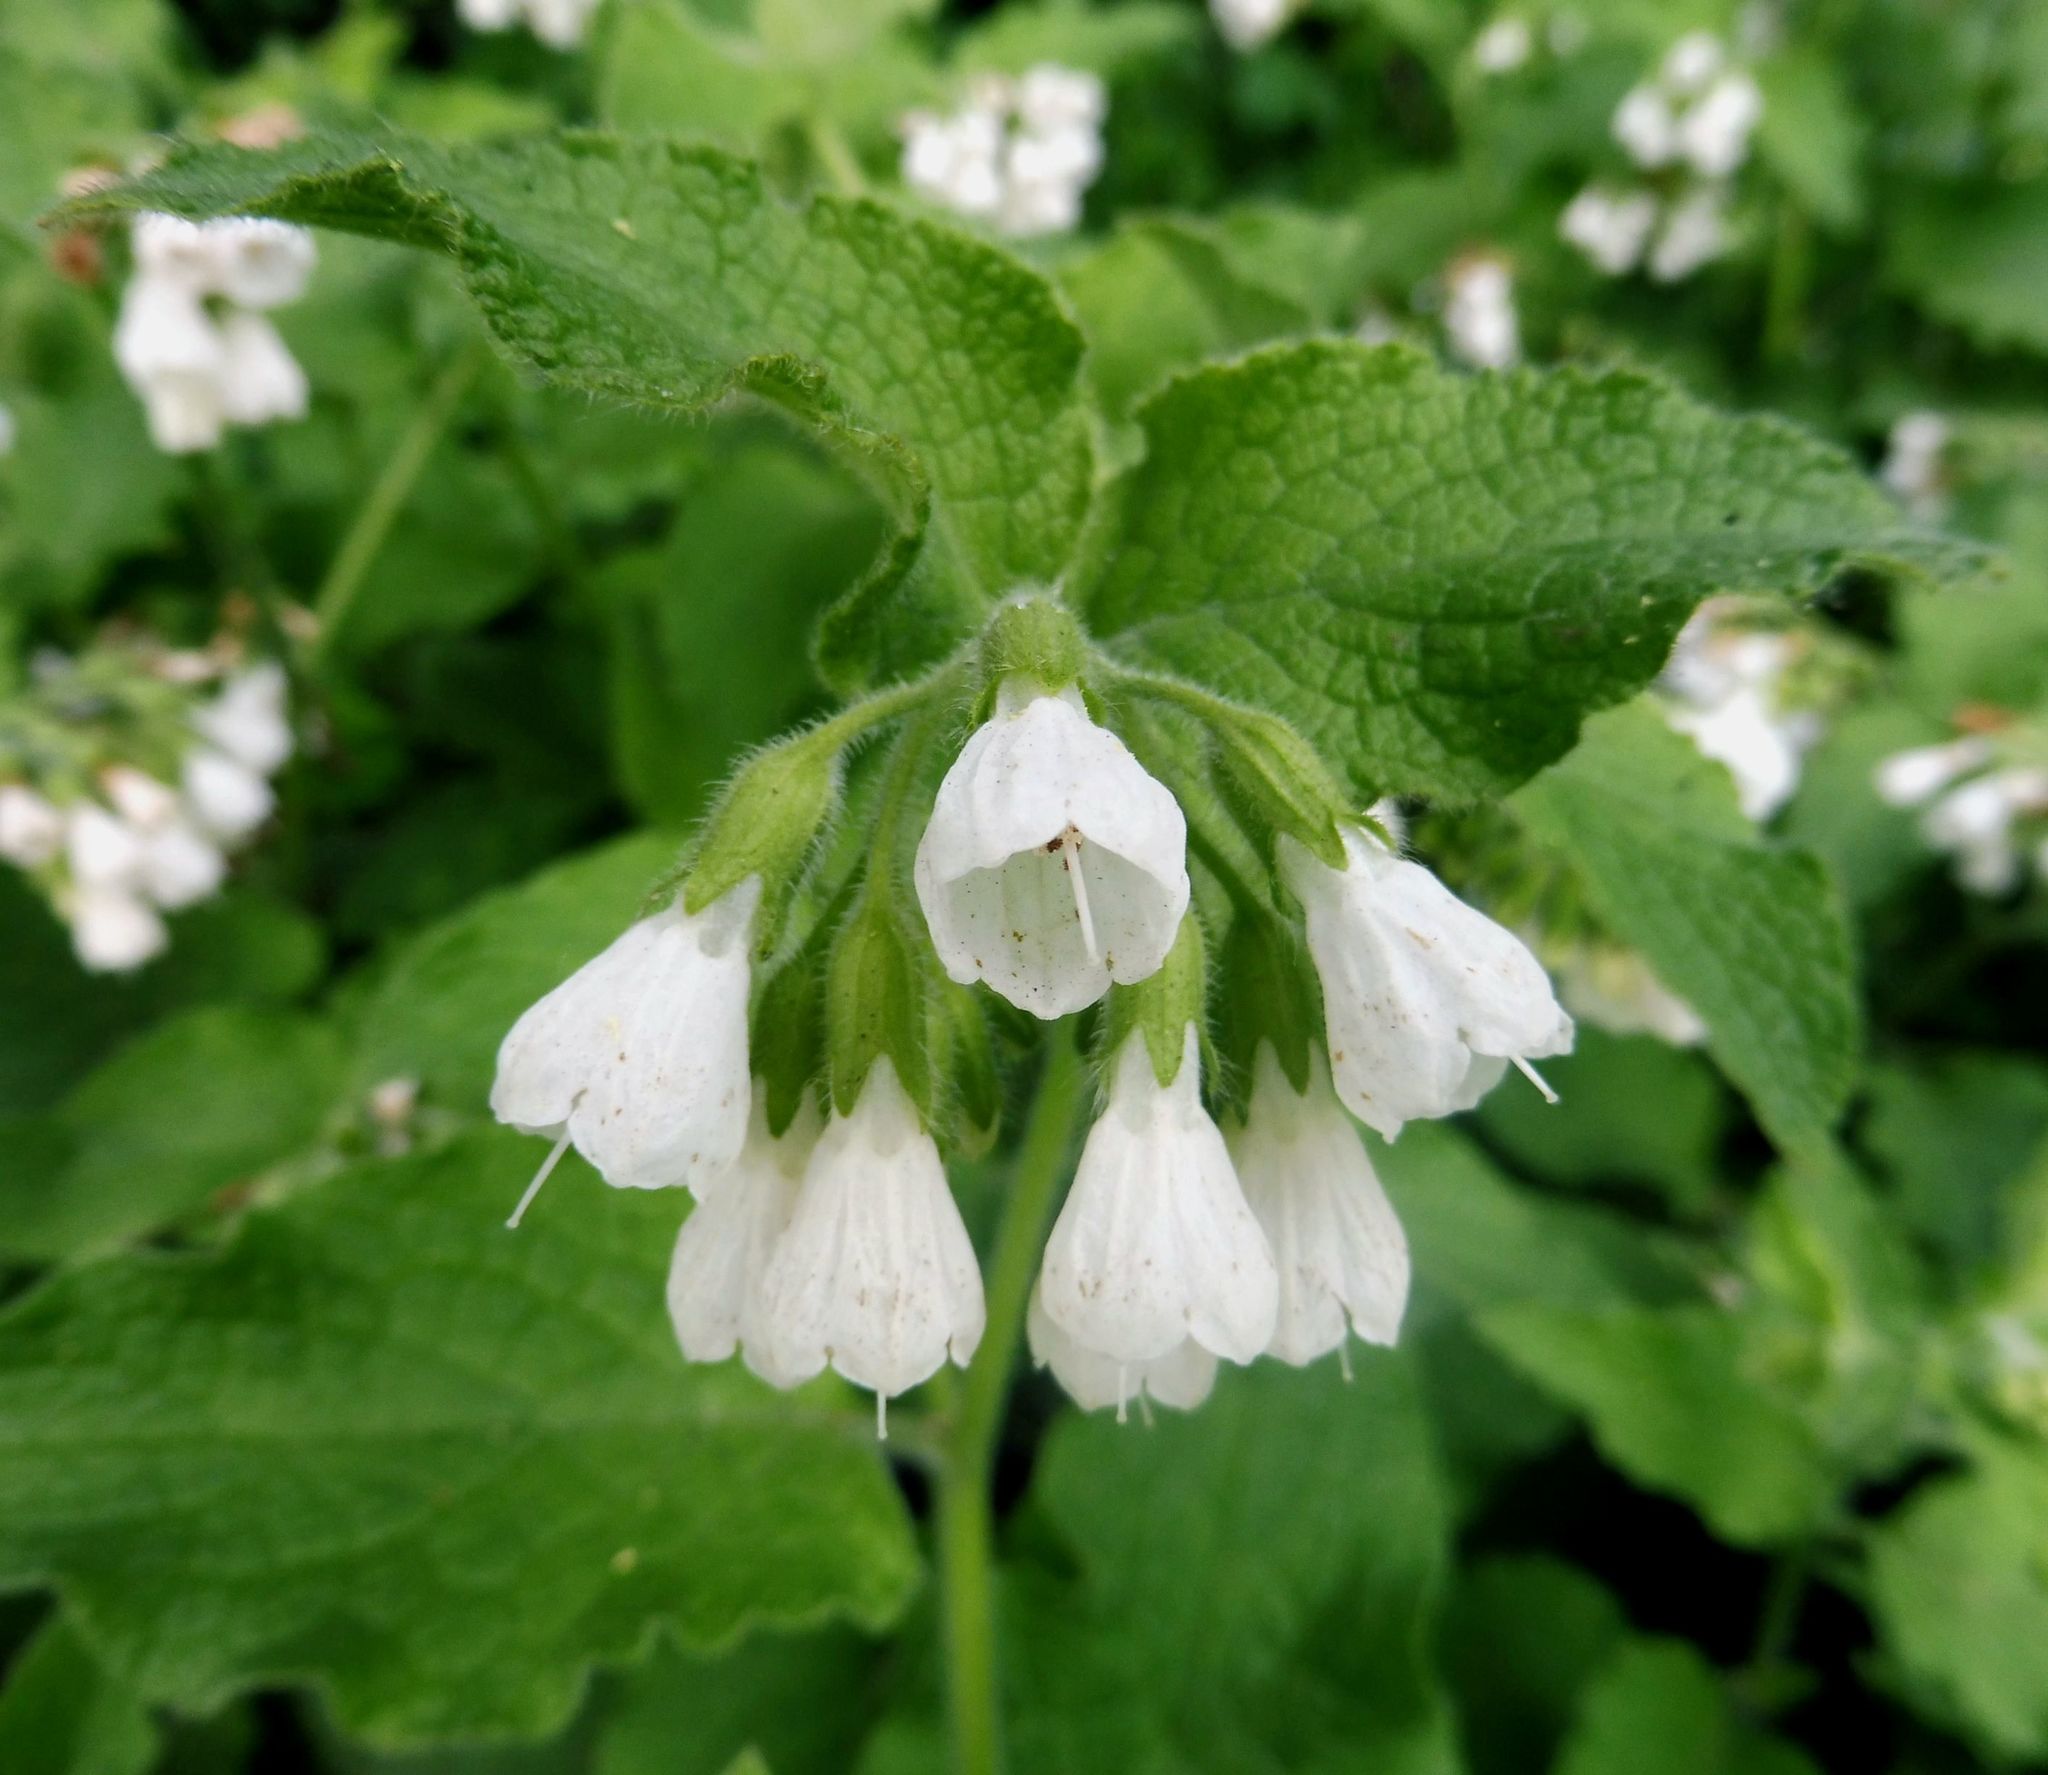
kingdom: Plantae
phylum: Tracheophyta
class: Magnoliopsida
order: Boraginales
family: Boraginaceae
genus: Symphytum
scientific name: Symphytum orientale
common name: White comfrey
